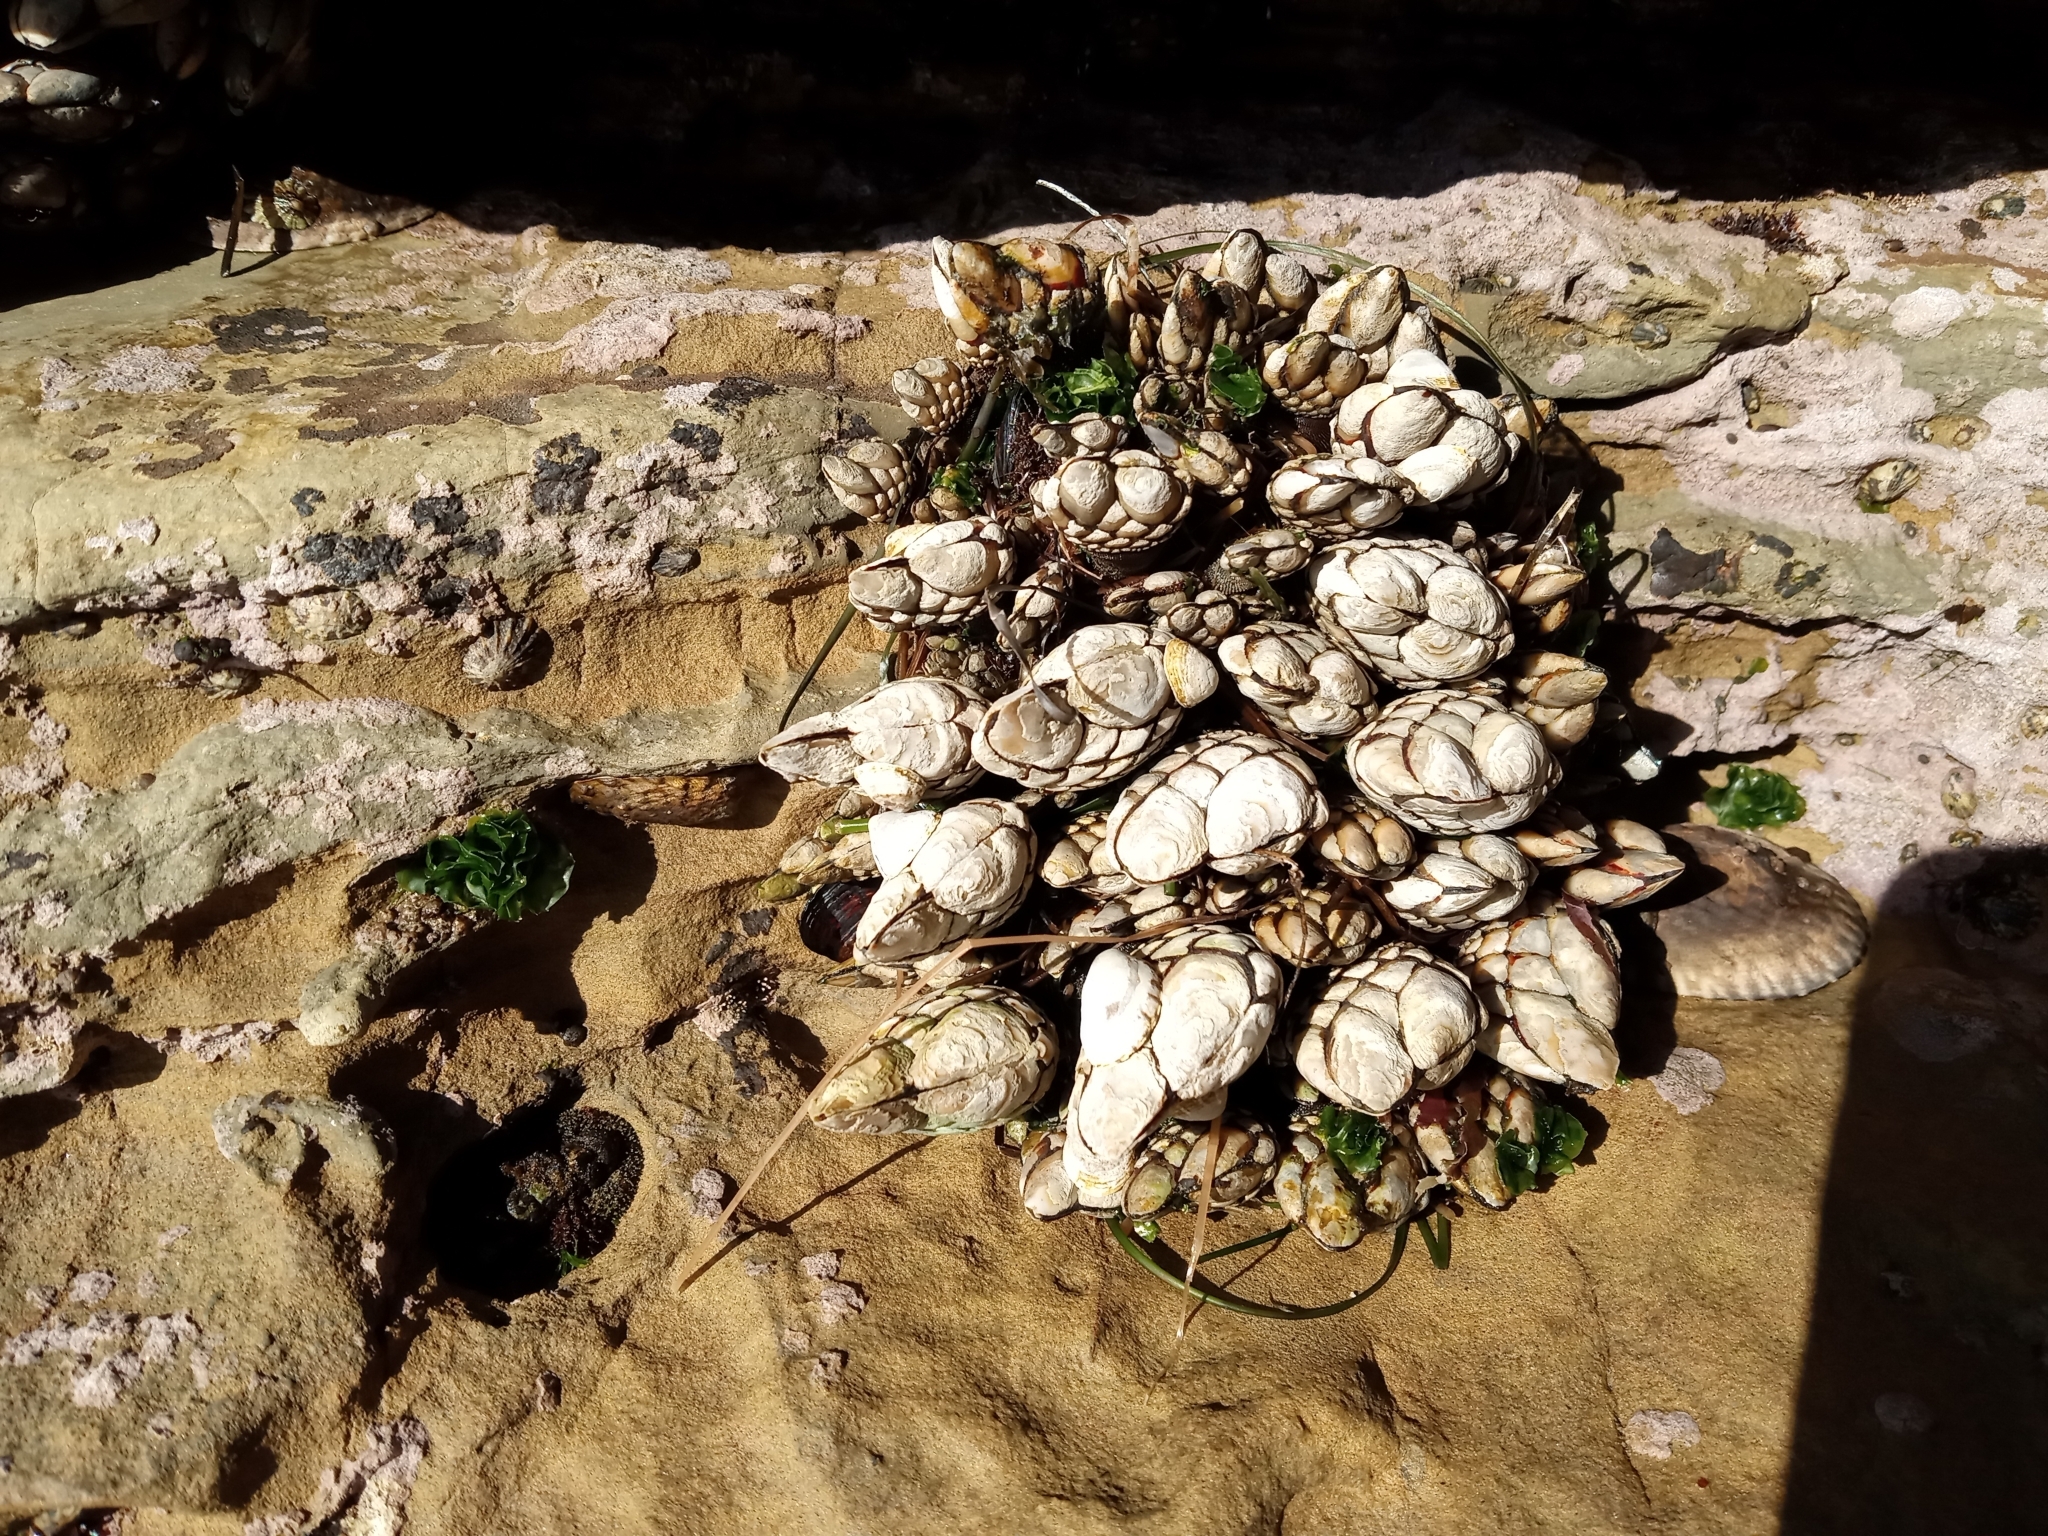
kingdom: Animalia
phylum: Arthropoda
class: Maxillopoda
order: Pedunculata
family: Pollicipedidae
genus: Pollicipes
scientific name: Pollicipes polymerus
